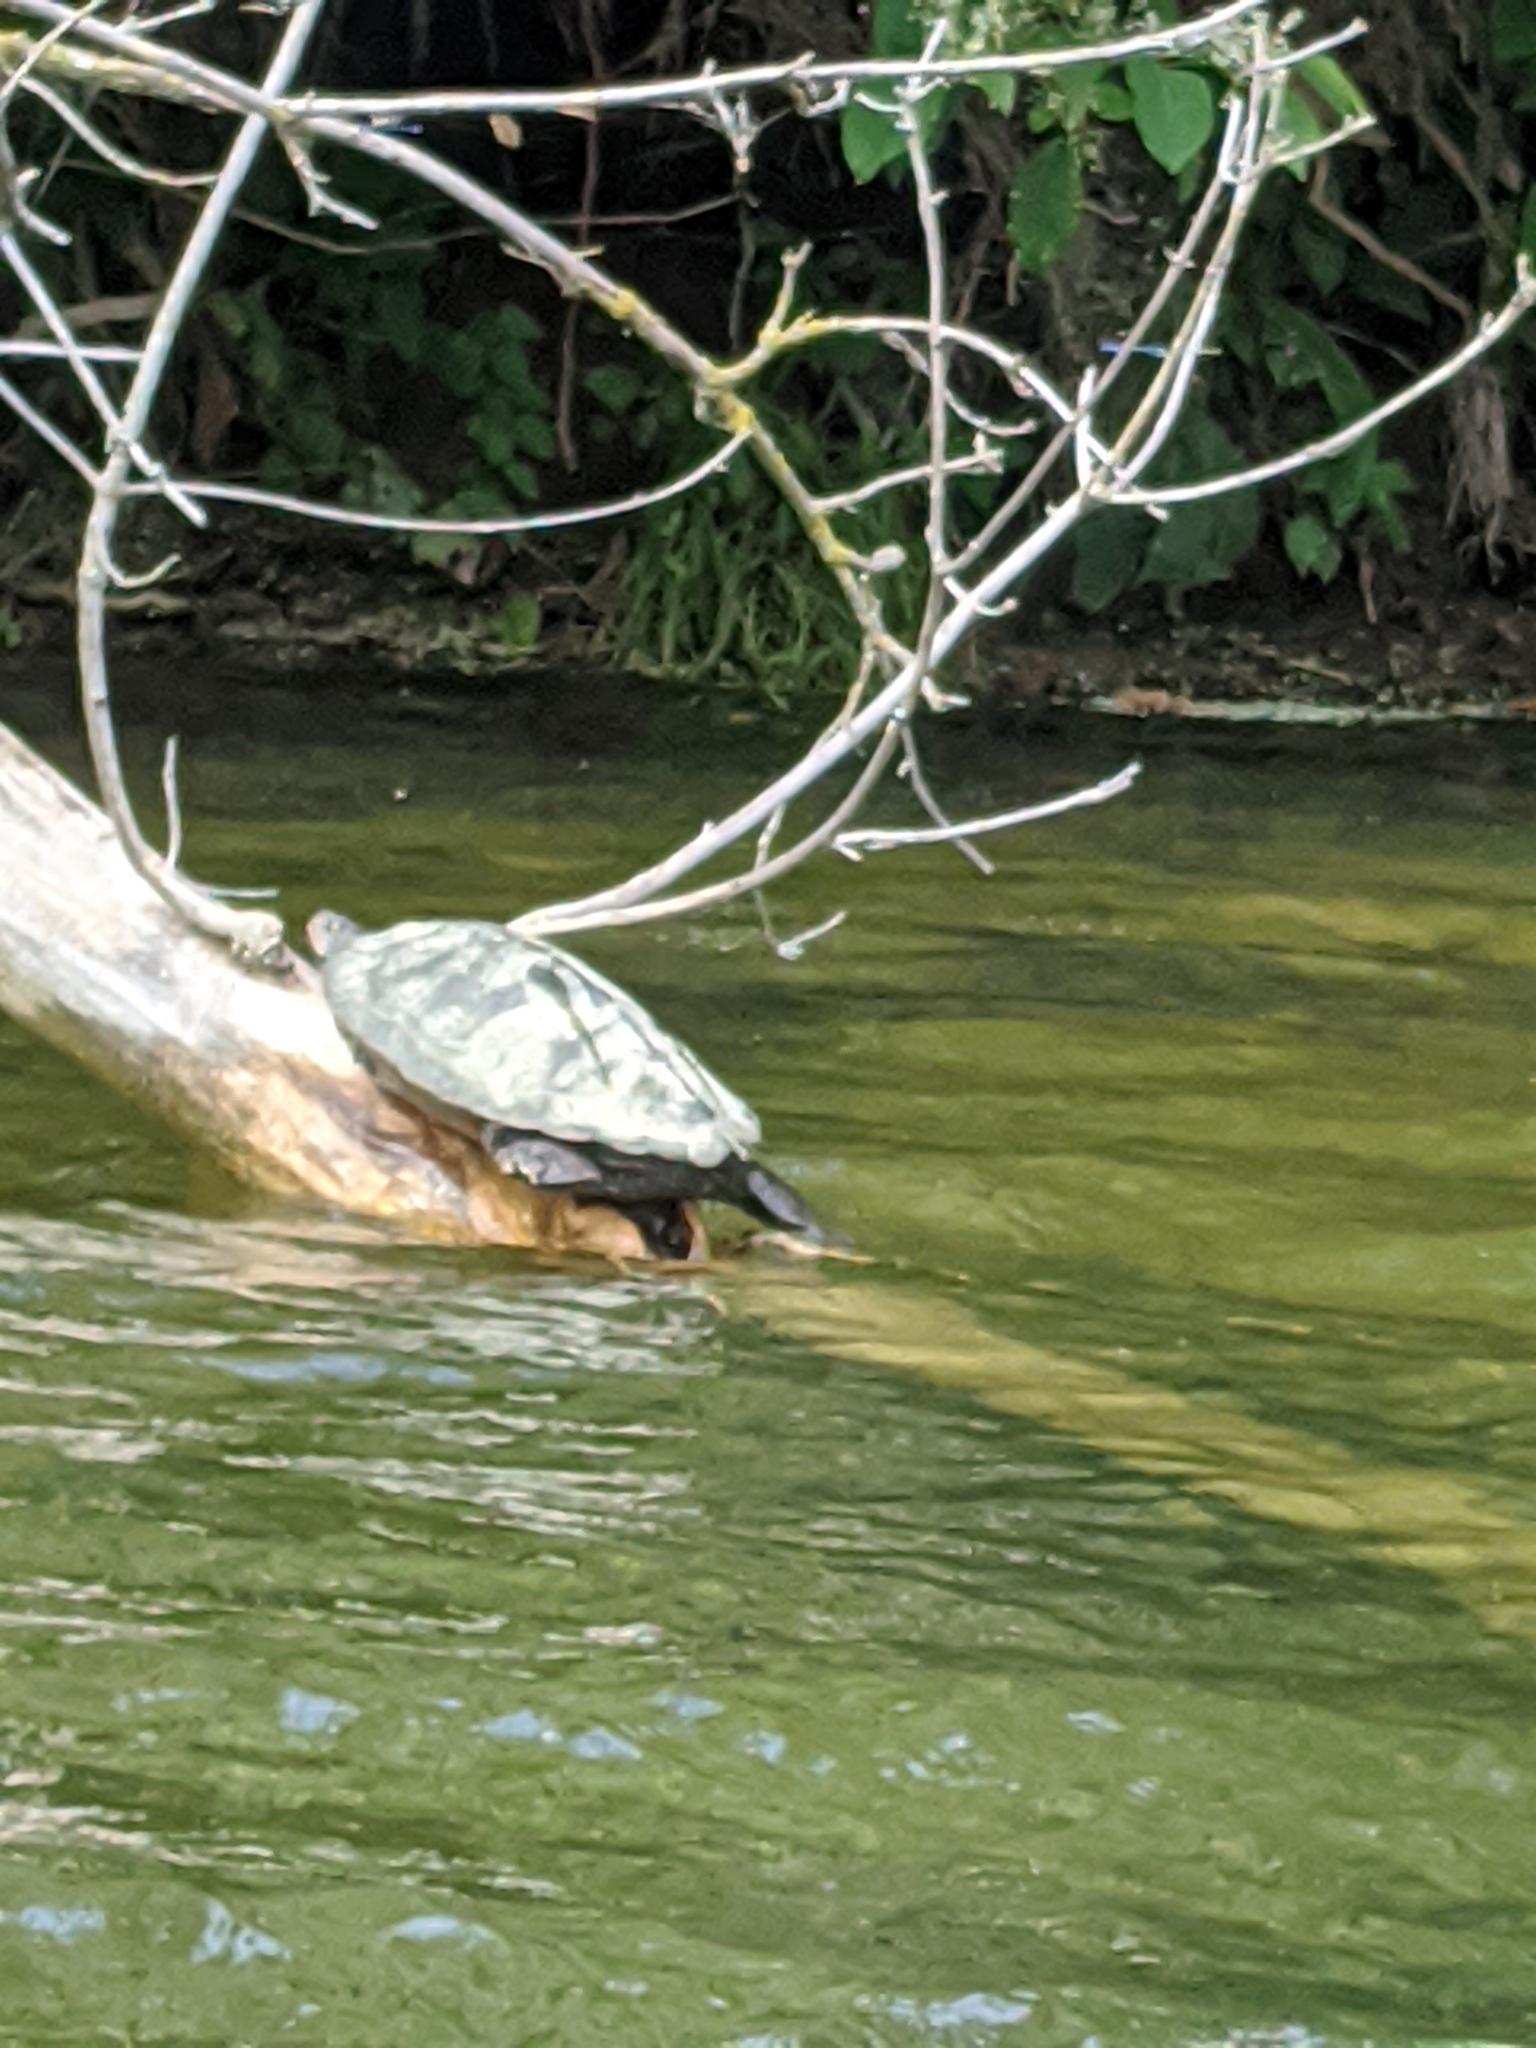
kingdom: Animalia
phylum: Chordata
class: Testudines
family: Emydidae
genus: Graptemys
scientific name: Graptemys geographica
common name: Common map turtle
